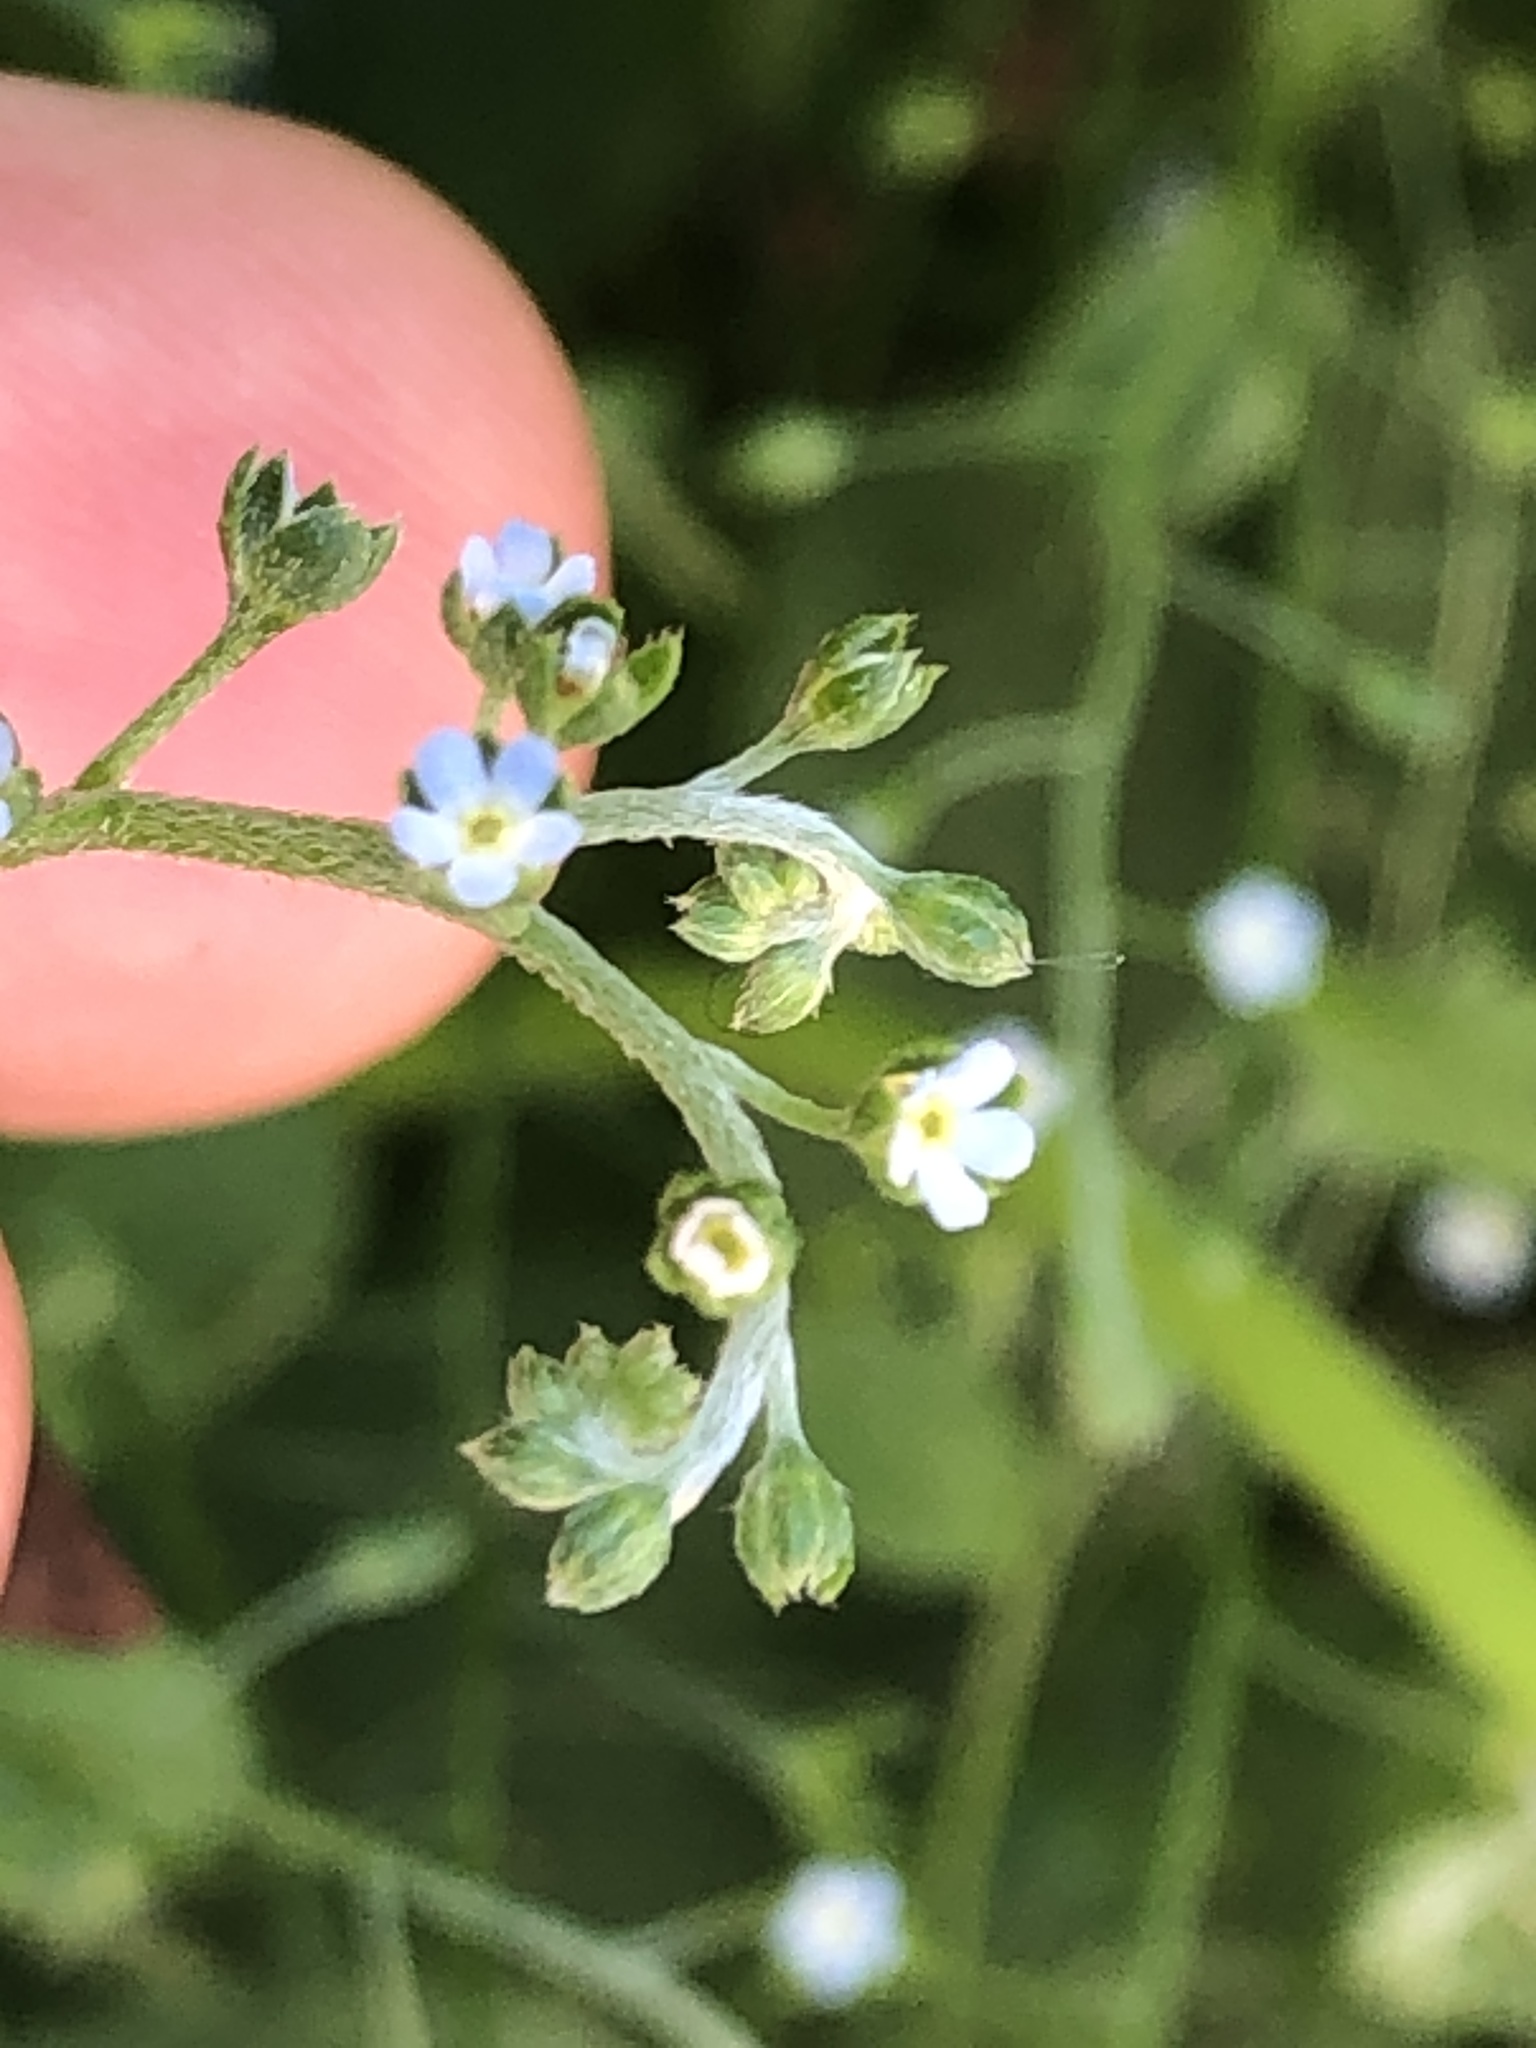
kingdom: Plantae
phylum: Tracheophyta
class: Magnoliopsida
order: Boraginales
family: Boraginaceae
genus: Trigonotis
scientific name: Trigonotis peduncularis
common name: Cucumber herb
